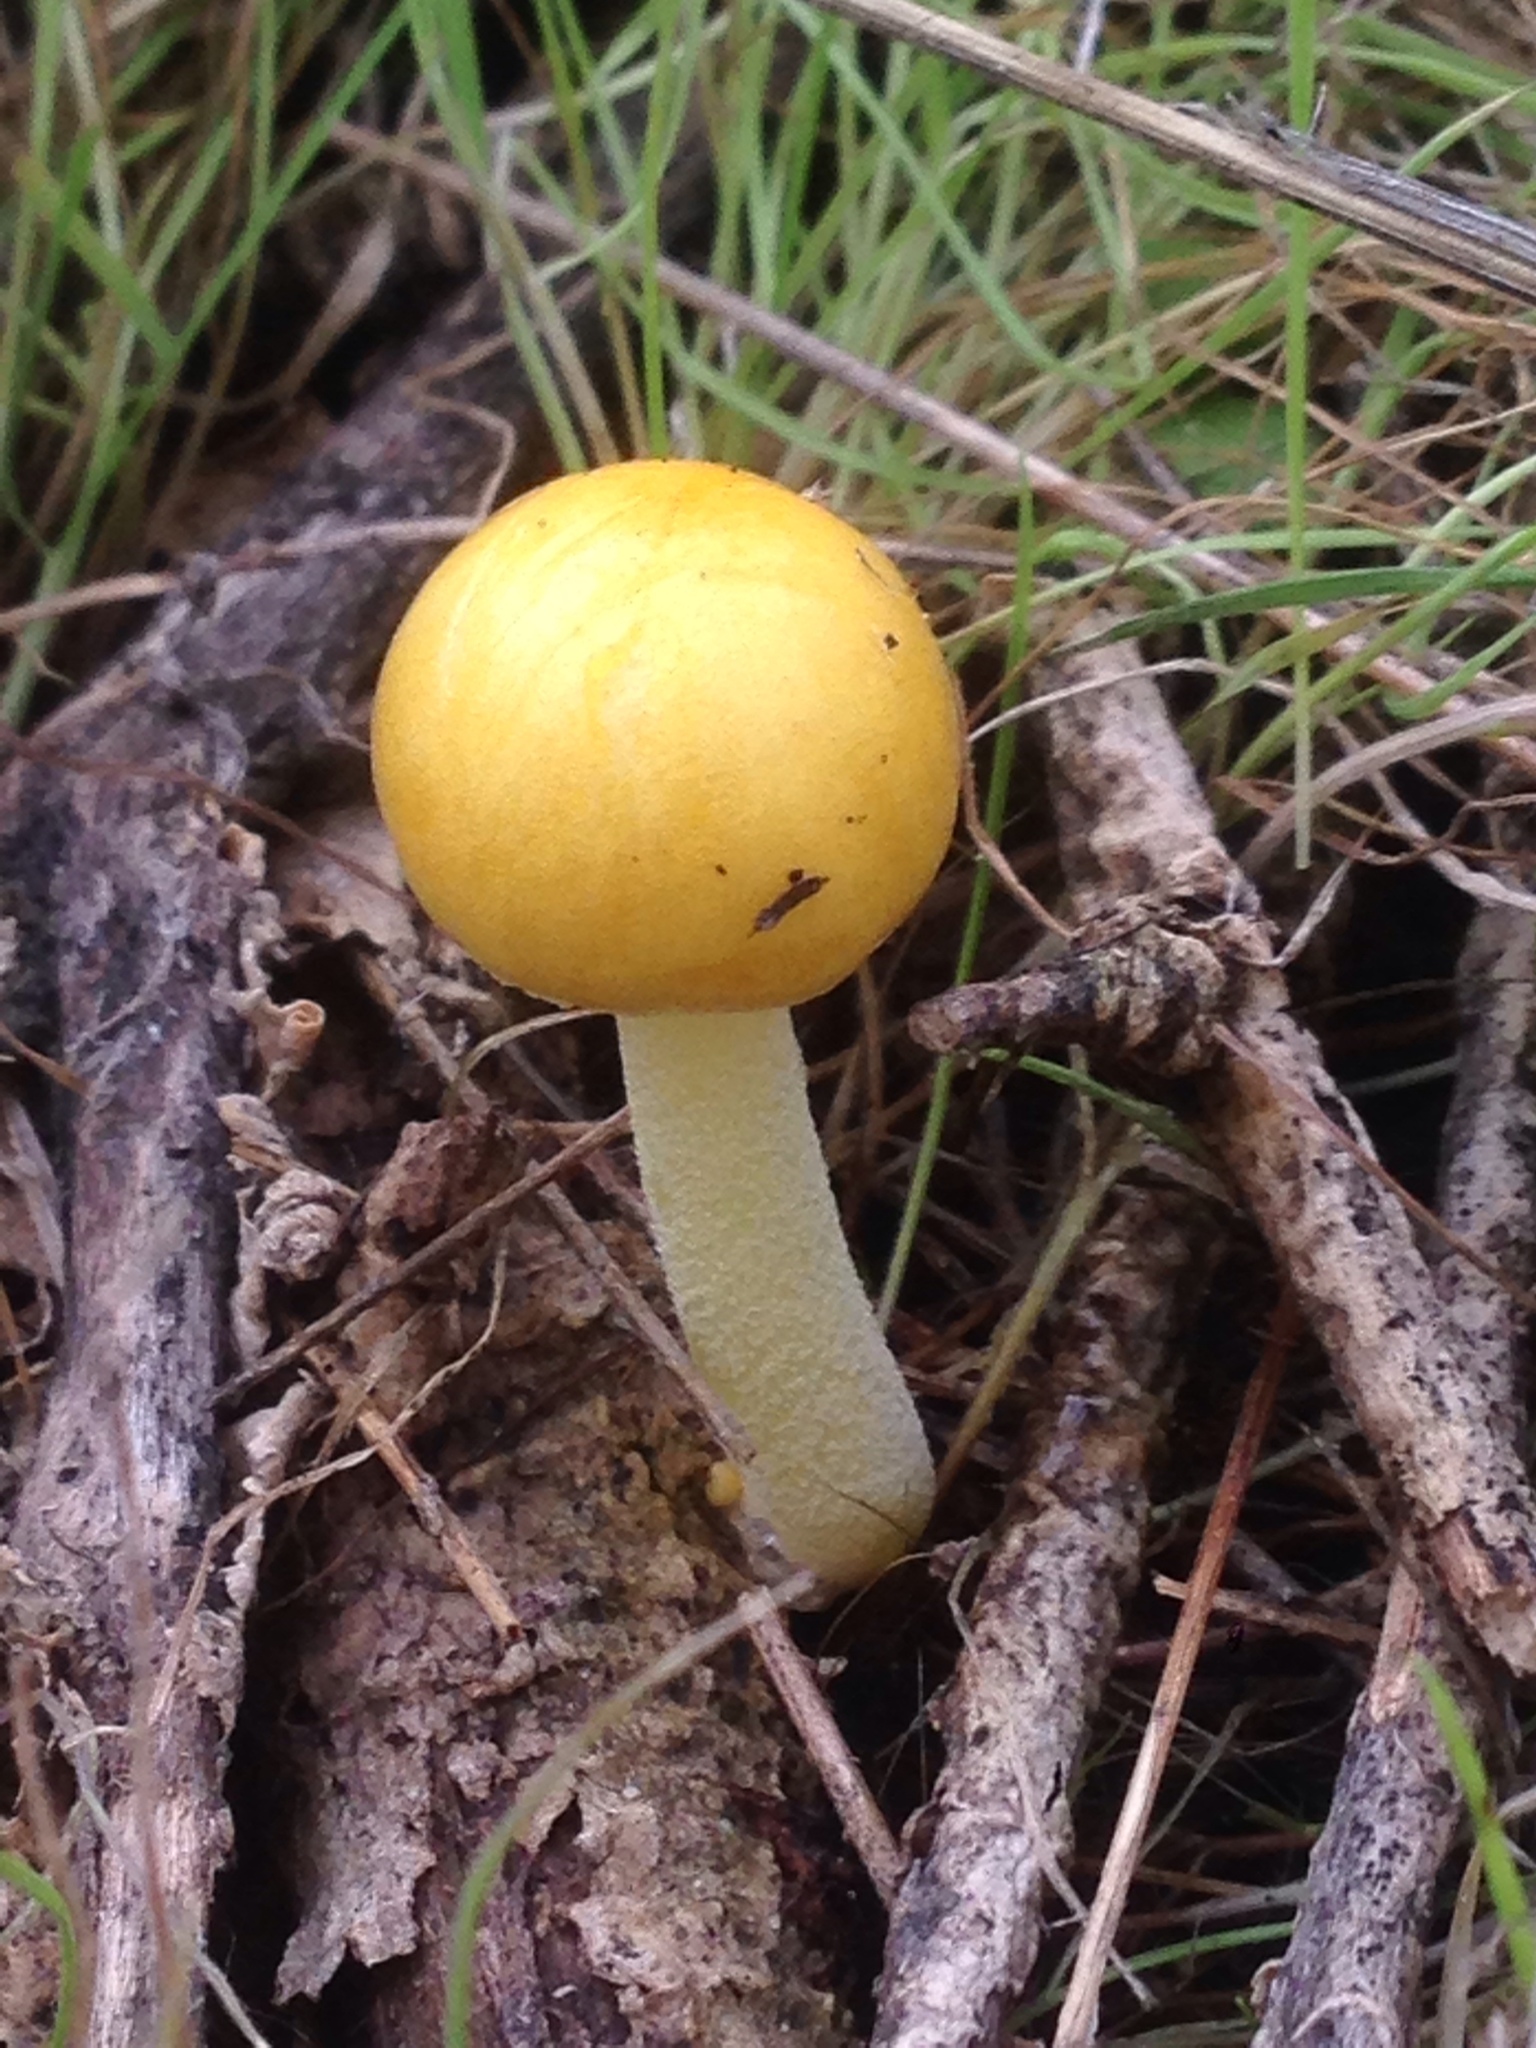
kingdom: Fungi
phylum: Basidiomycota
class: Agaricomycetes
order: Agaricales
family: Bolbitiaceae
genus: Bolbitius
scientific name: Bolbitius titubans
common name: Yellow fieldcap
